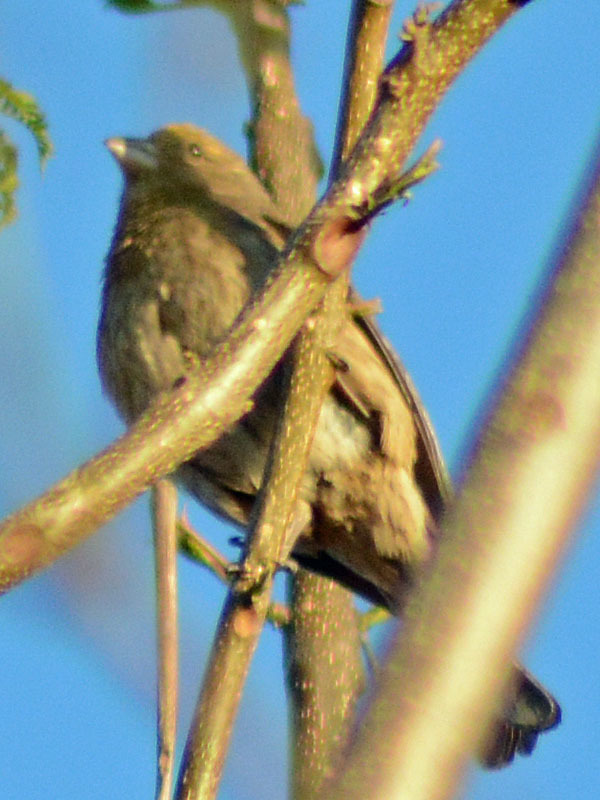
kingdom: Animalia
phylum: Chordata
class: Aves
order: Passeriformes
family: Fringillidae
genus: Haemorhous
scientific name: Haemorhous mexicanus
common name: House finch
